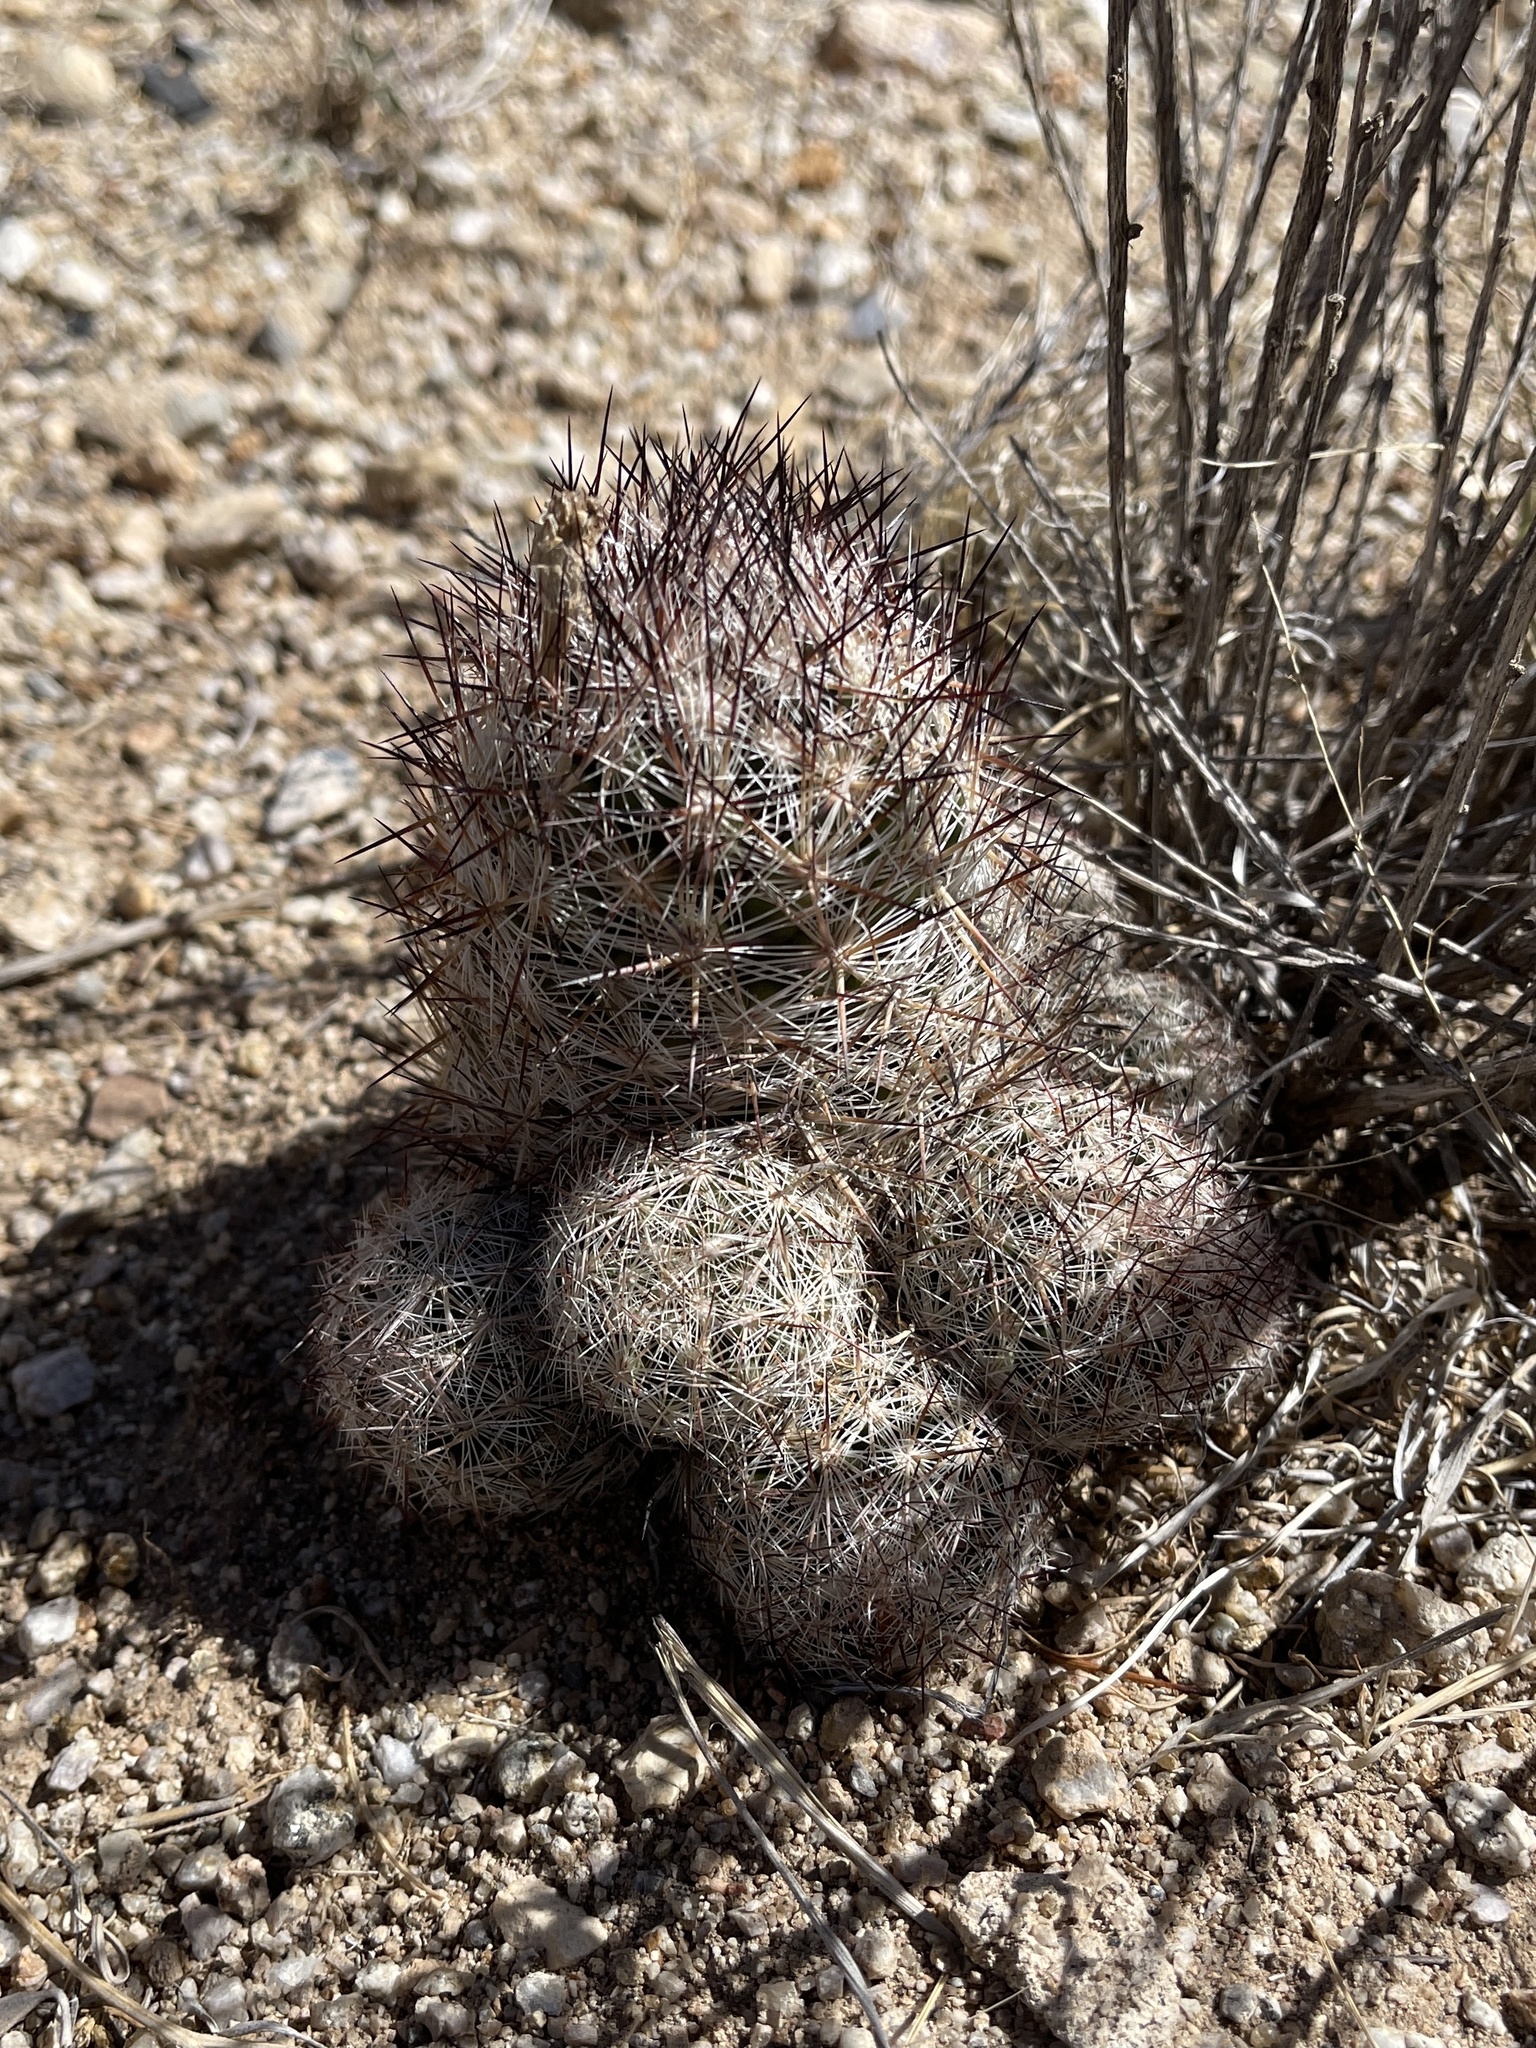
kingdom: Plantae
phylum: Tracheophyta
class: Magnoliopsida
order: Caryophyllales
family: Cactaceae
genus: Pelecyphora
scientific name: Pelecyphora vivipara
